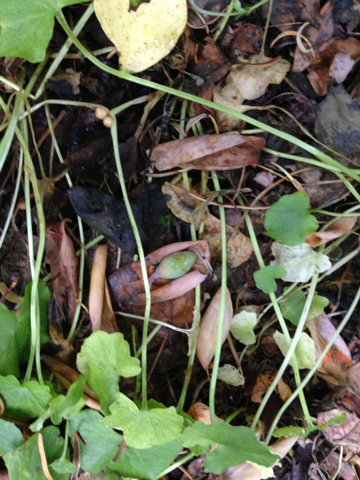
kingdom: Plantae
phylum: Tracheophyta
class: Magnoliopsida
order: Ranunculales
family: Ranunculaceae
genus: Ficaria
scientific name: Ficaria verna
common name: Lesser celandine
